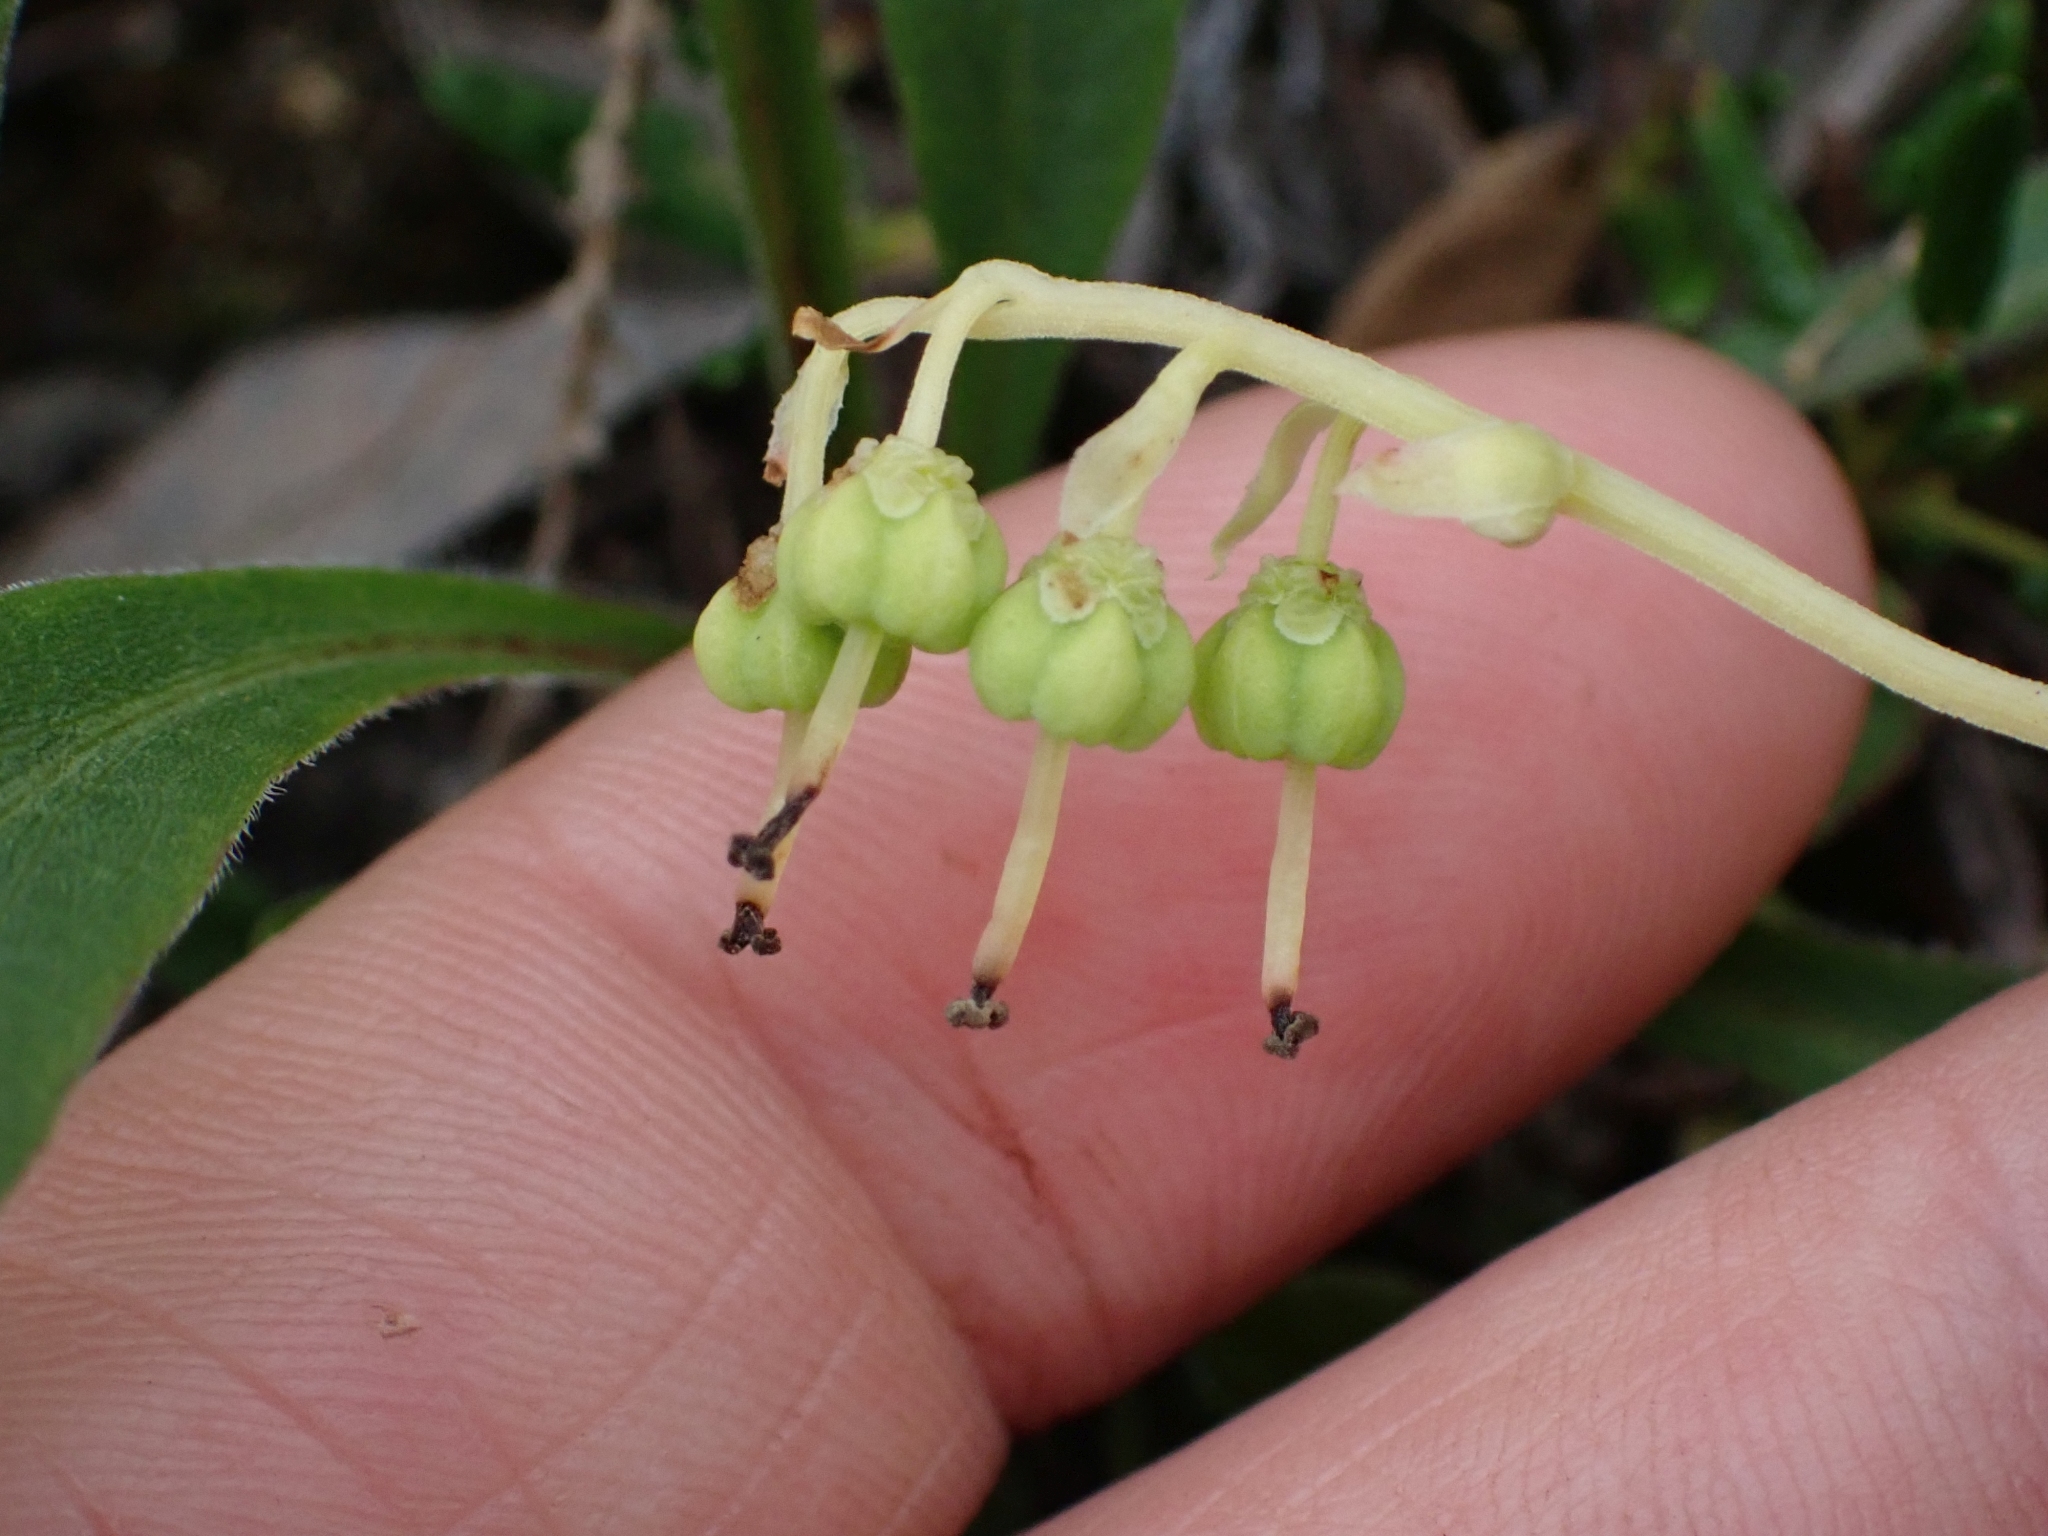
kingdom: Plantae
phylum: Tracheophyta
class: Magnoliopsida
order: Ericales
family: Ericaceae
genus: Orthilia
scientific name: Orthilia secunda
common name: One-sided orthilia
